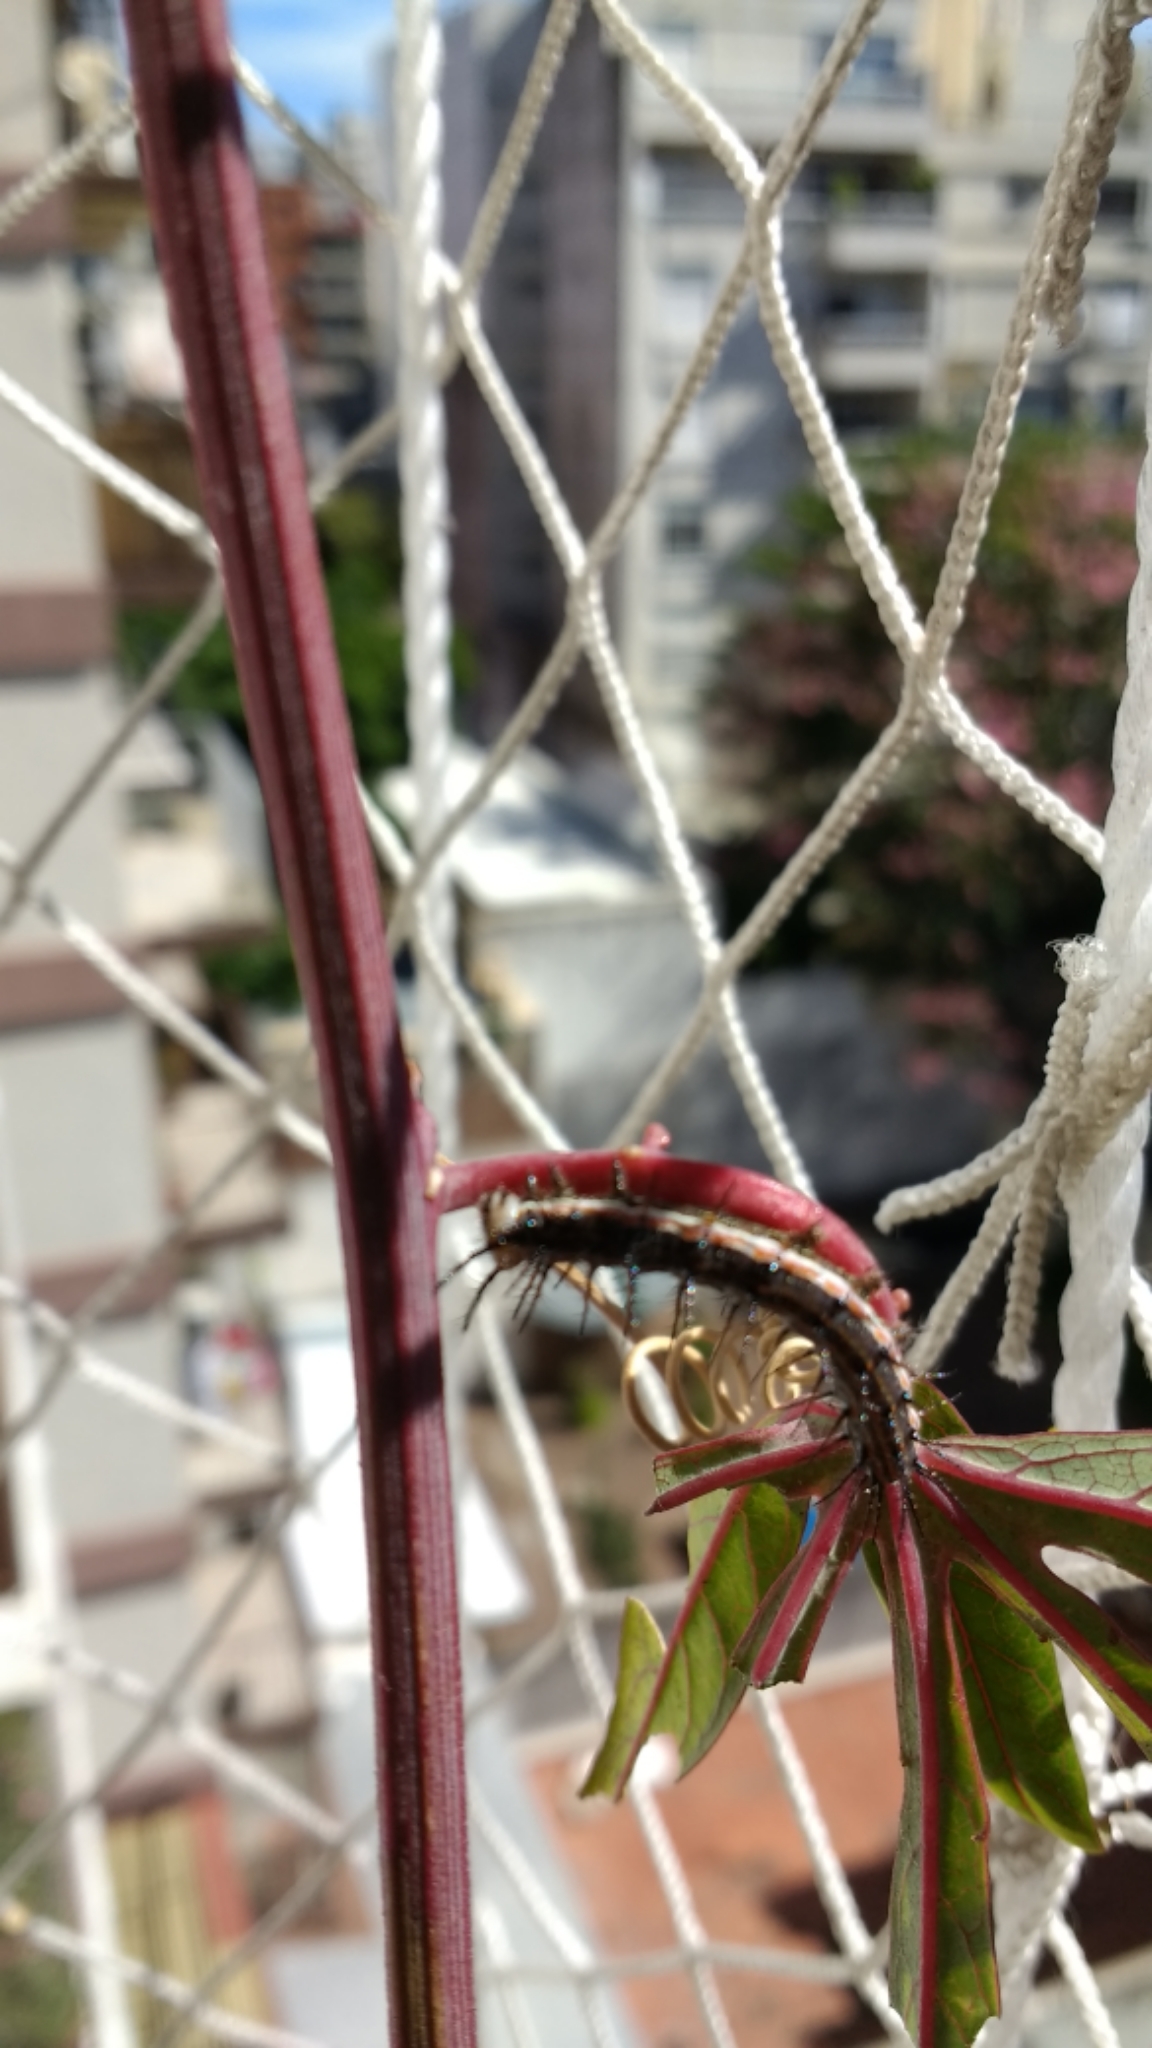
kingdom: Animalia
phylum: Arthropoda
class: Insecta
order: Lepidoptera
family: Nymphalidae
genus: Dione
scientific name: Dione vanillae
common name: Gulf fritillary
